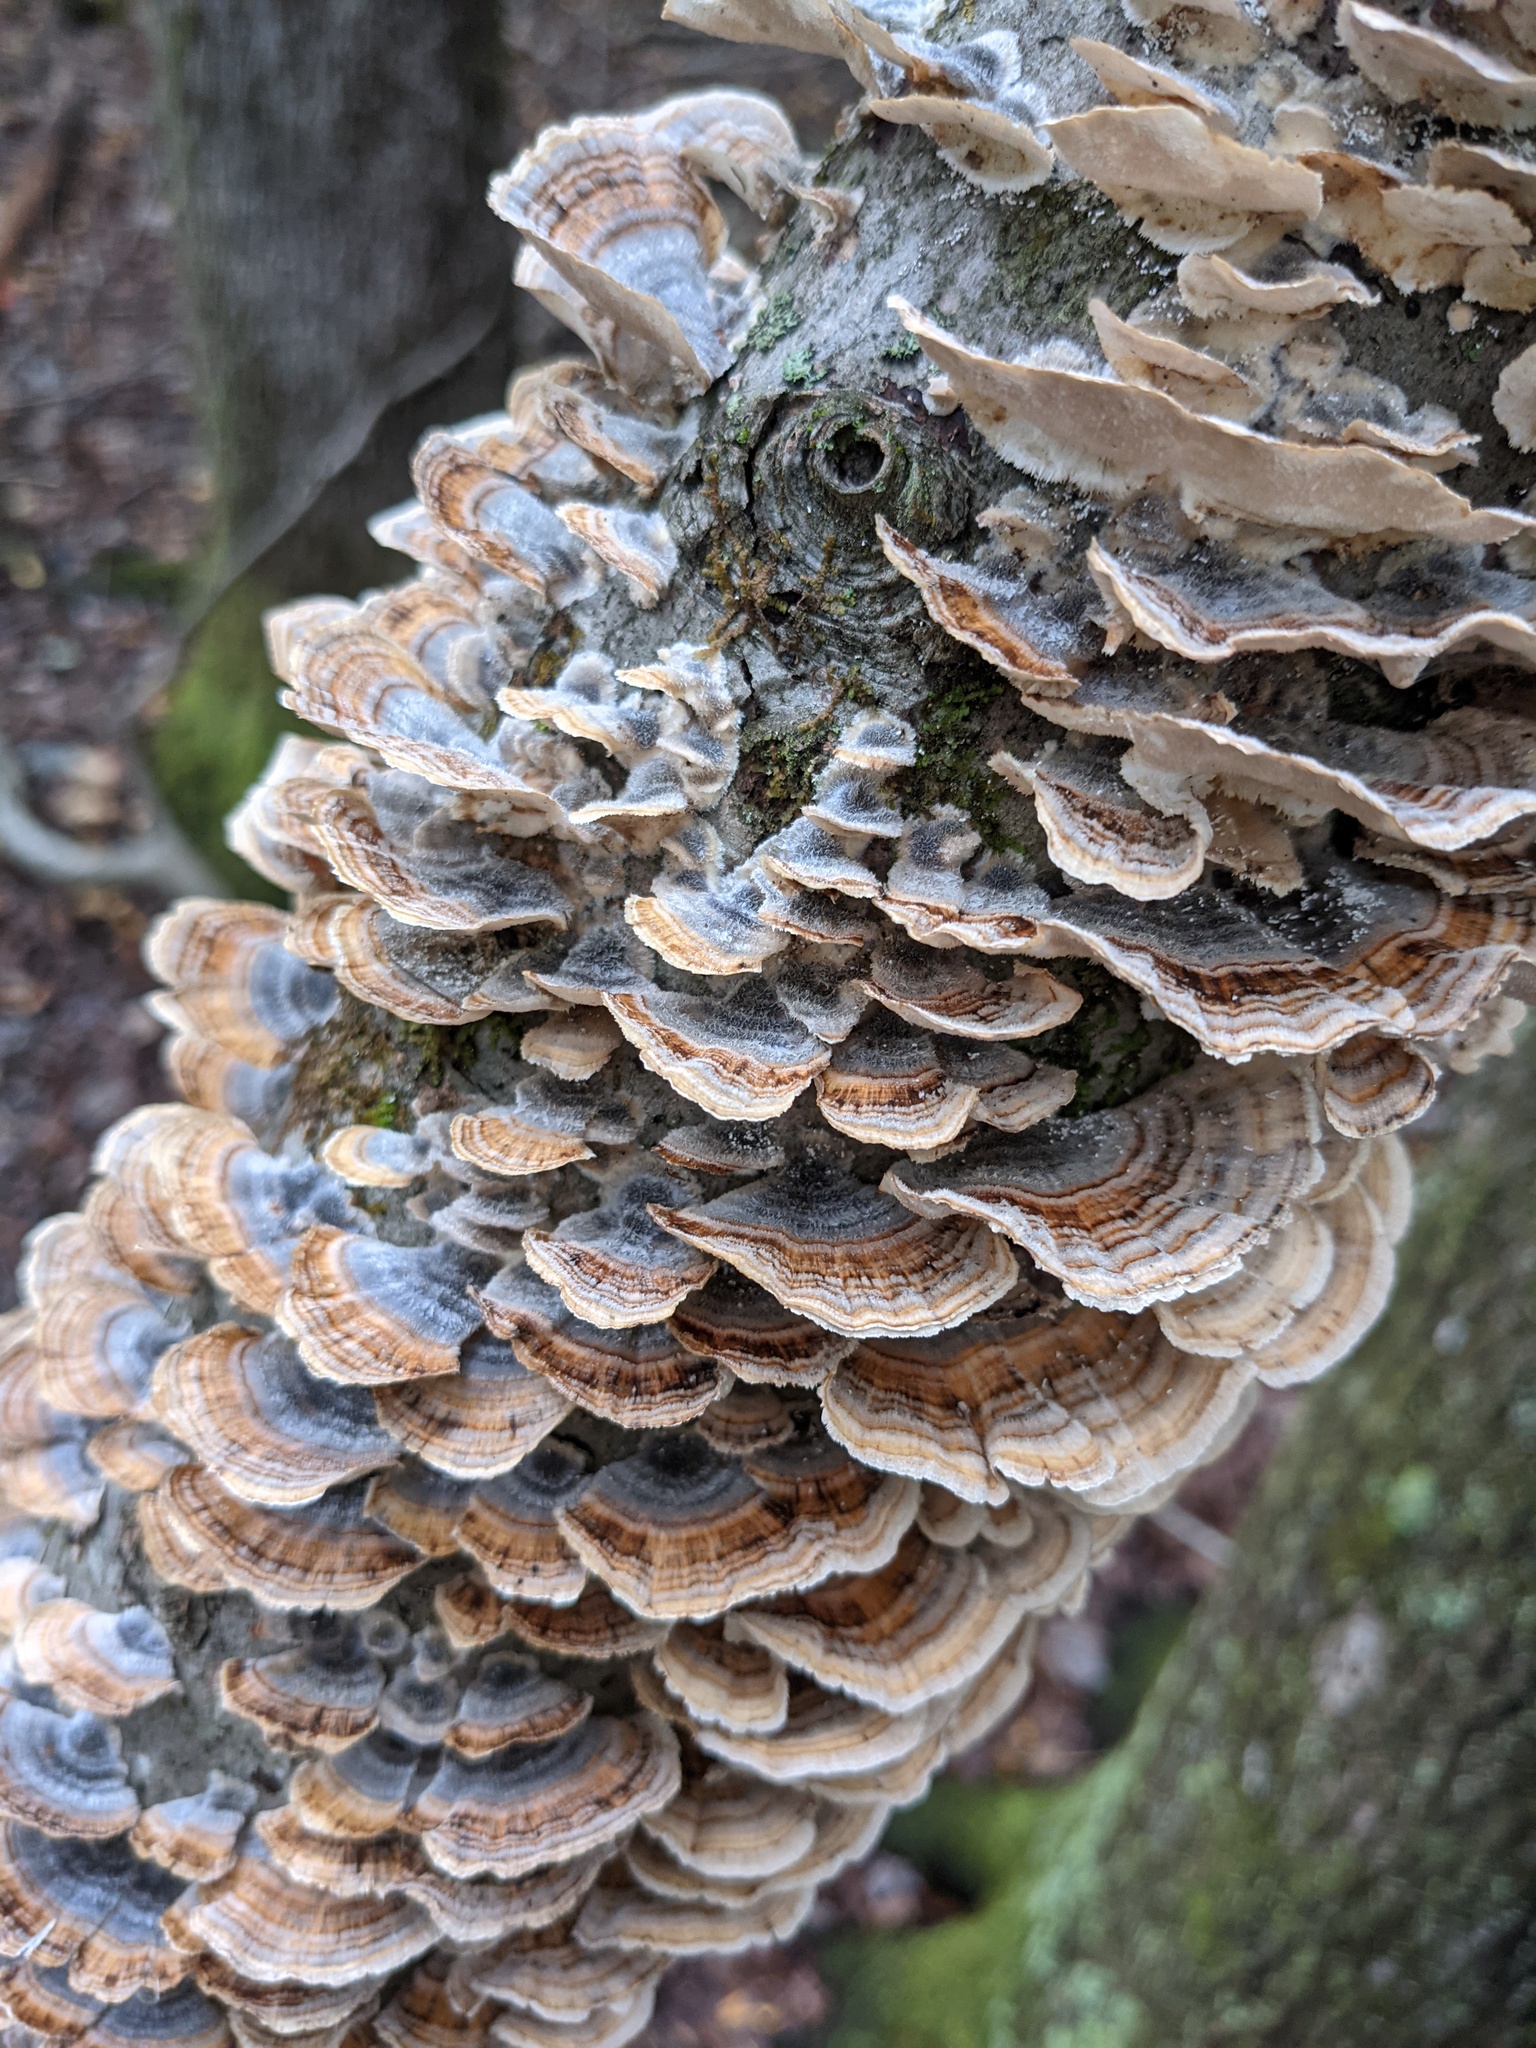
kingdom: Fungi
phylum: Basidiomycota
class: Agaricomycetes
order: Polyporales
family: Polyporaceae
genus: Trametes
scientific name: Trametes versicolor
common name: Turkeytail
